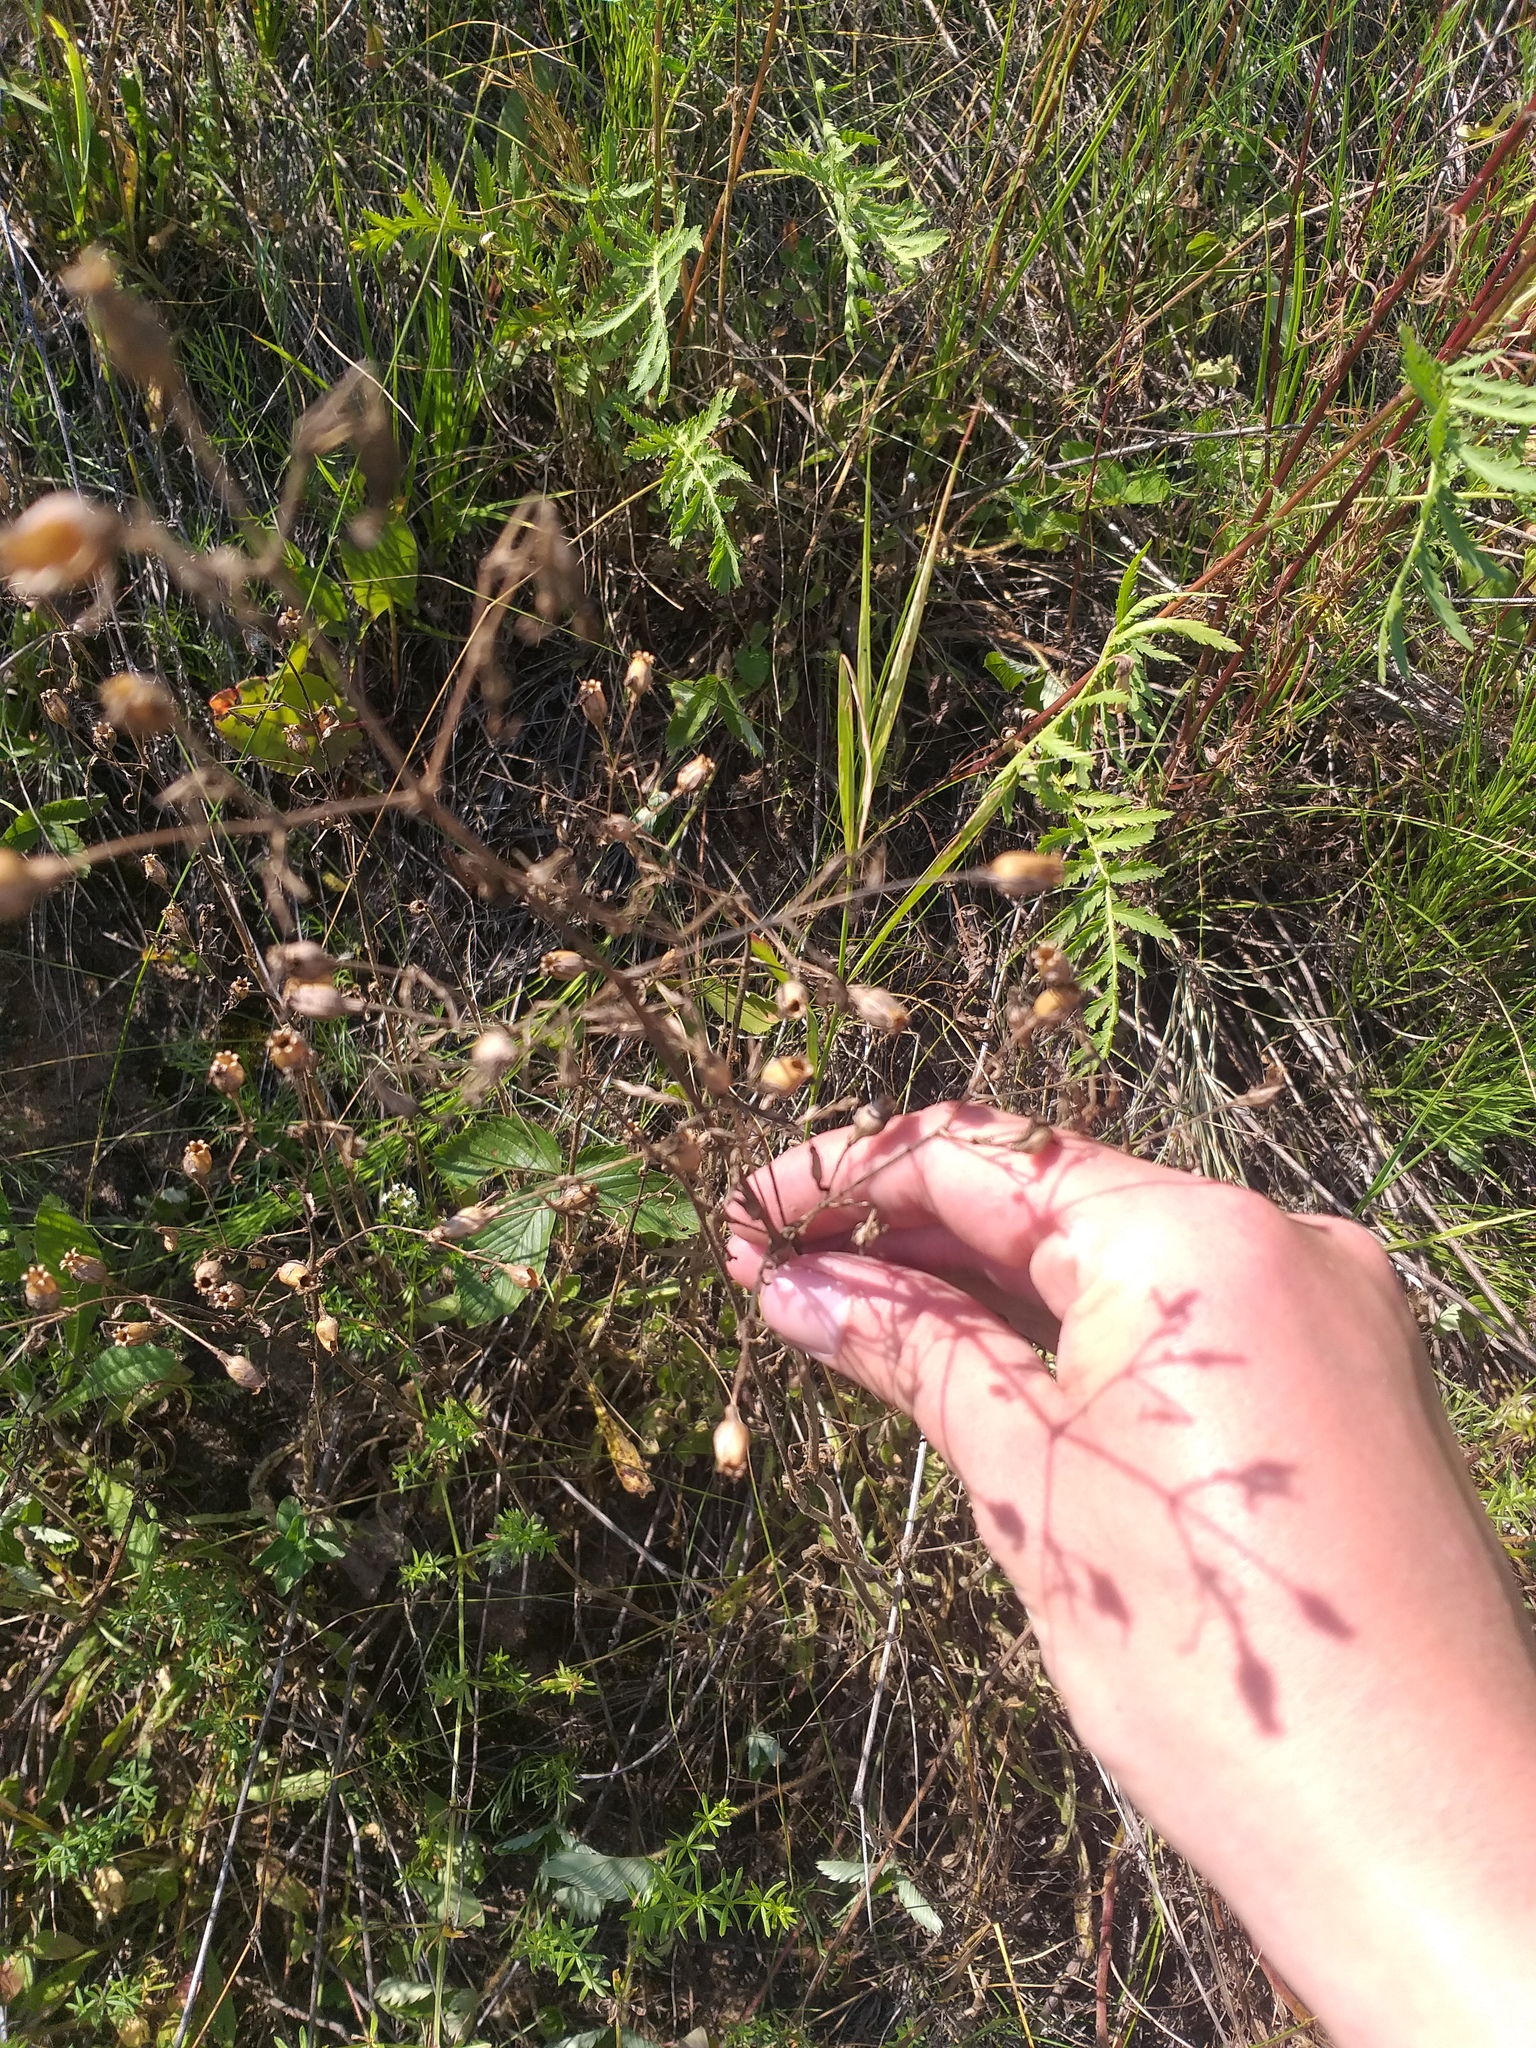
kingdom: Plantae
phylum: Tracheophyta
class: Magnoliopsida
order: Caryophyllales
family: Caryophyllaceae
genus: Silene
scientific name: Silene nutans
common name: Nottingham catchfly
